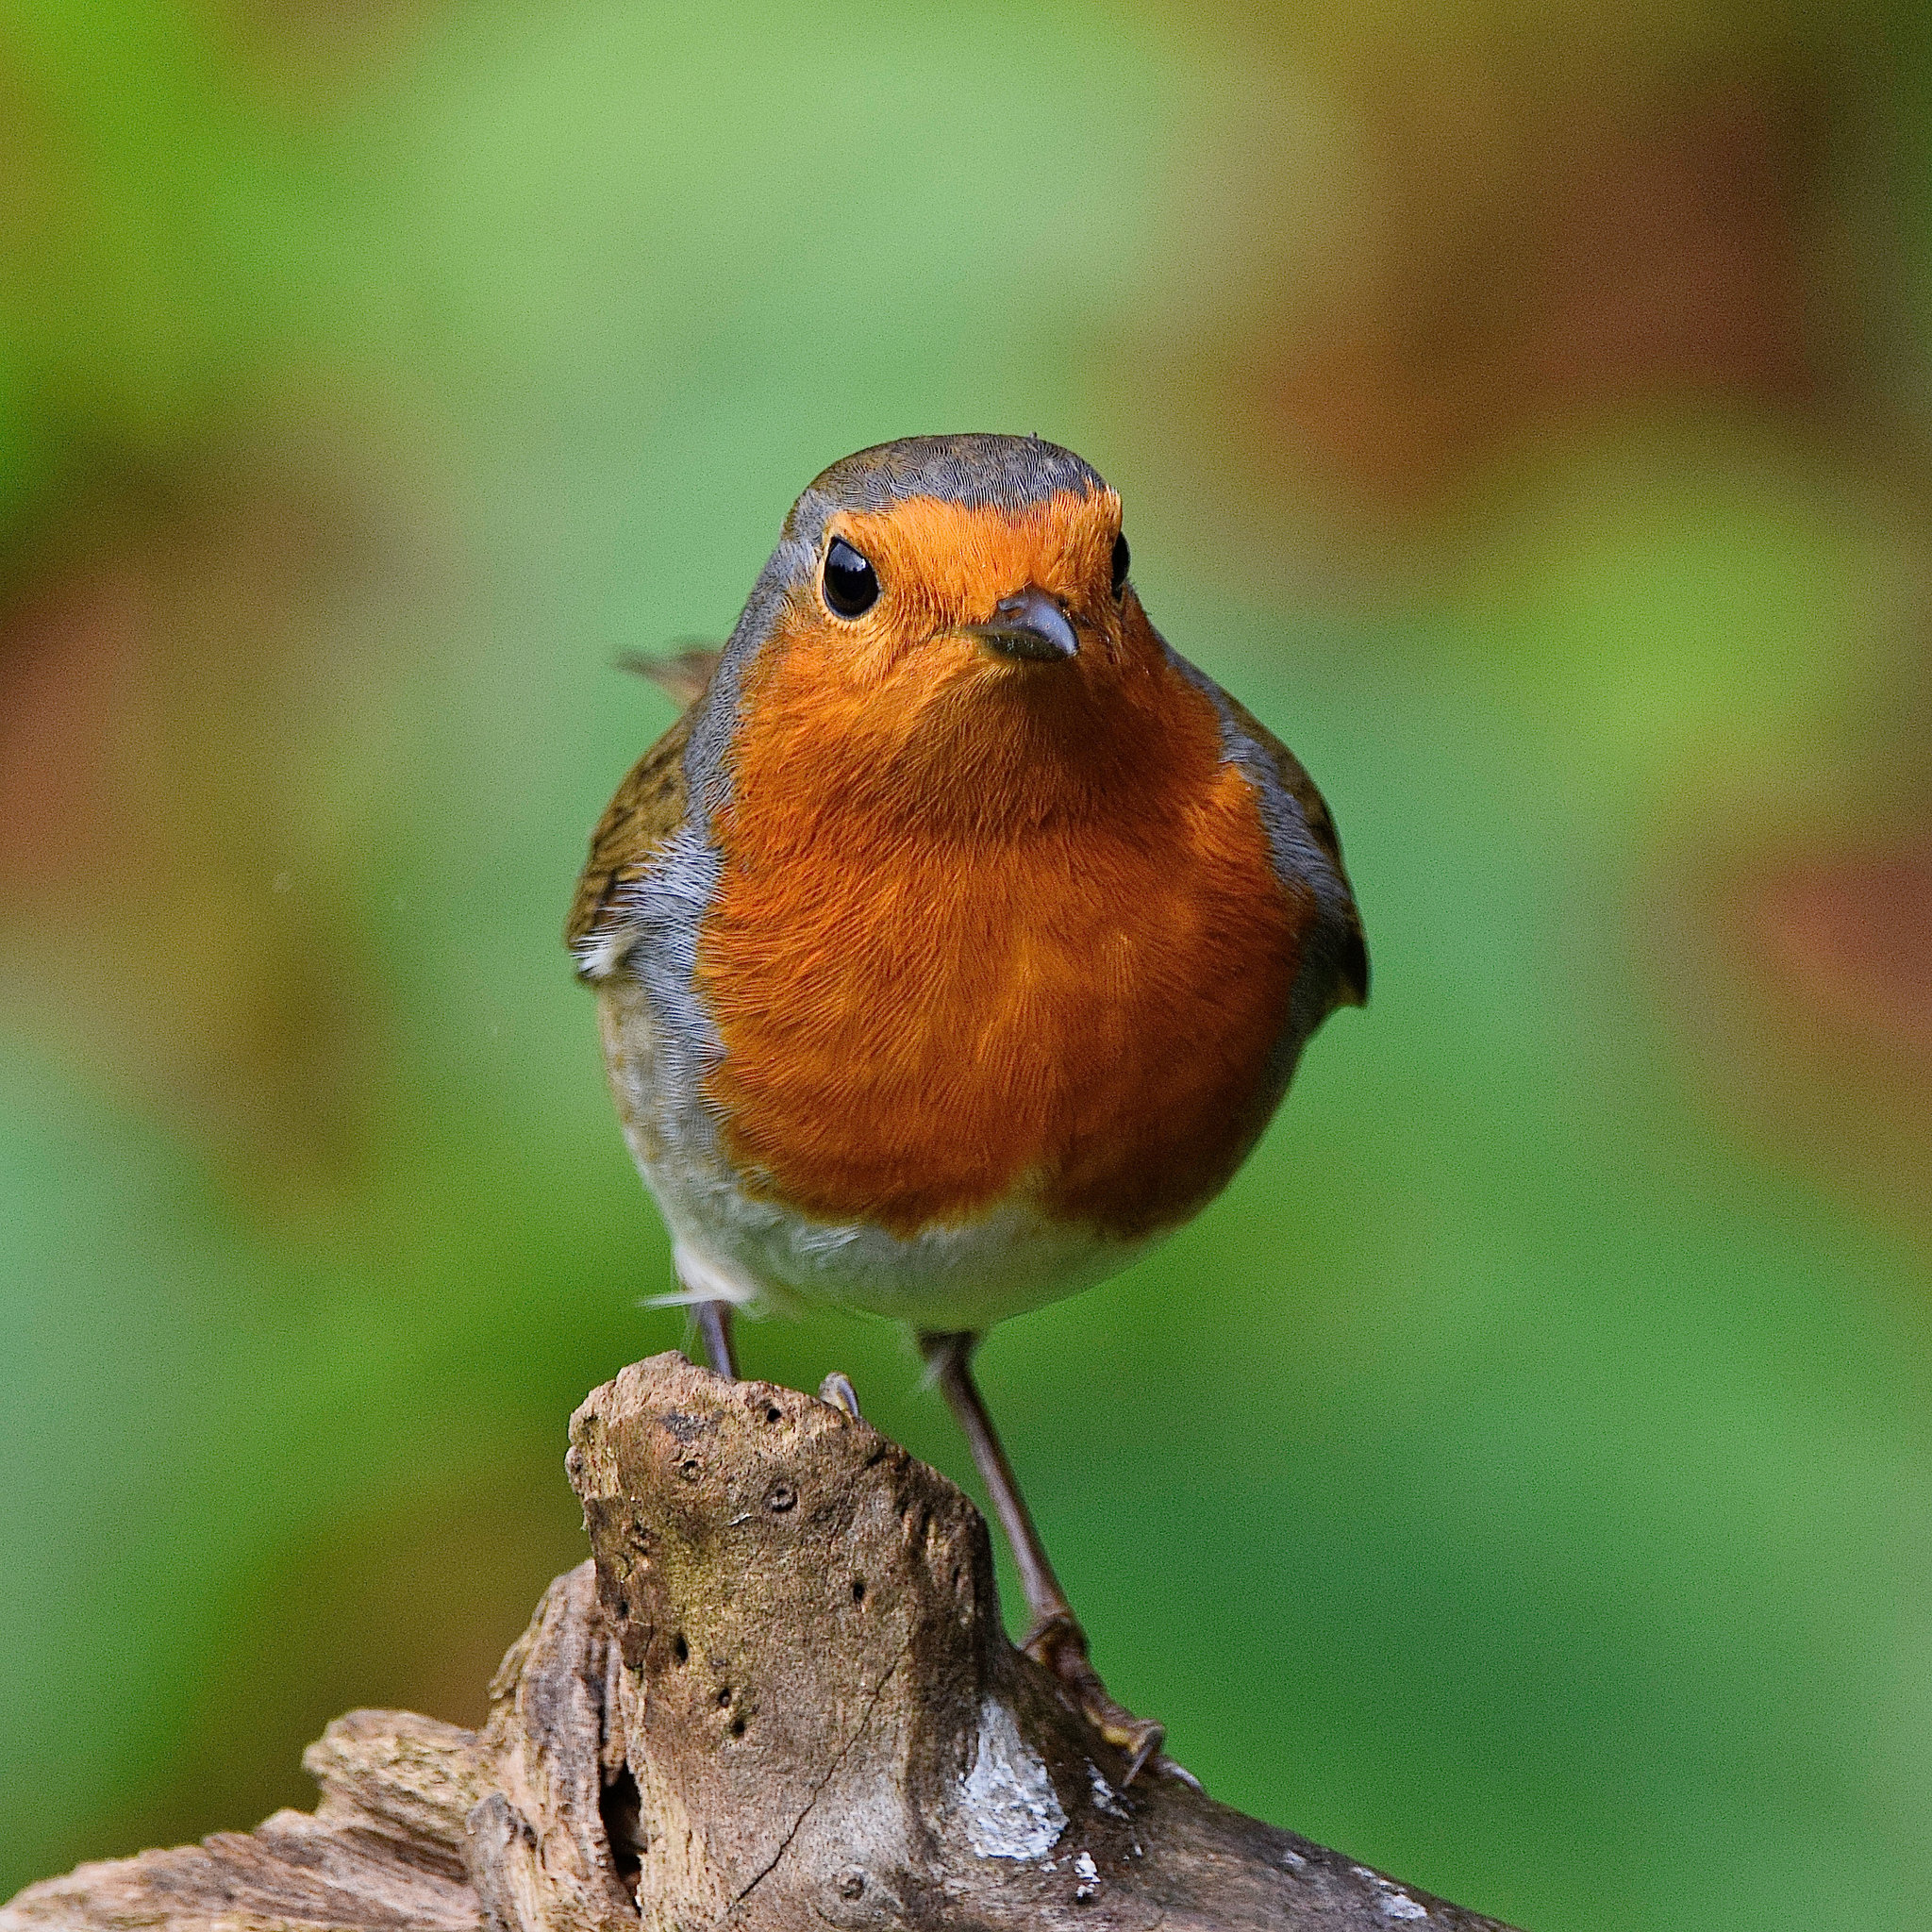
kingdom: Animalia
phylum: Chordata
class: Aves
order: Passeriformes
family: Muscicapidae
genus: Erithacus
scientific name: Erithacus rubecula
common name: European robin
